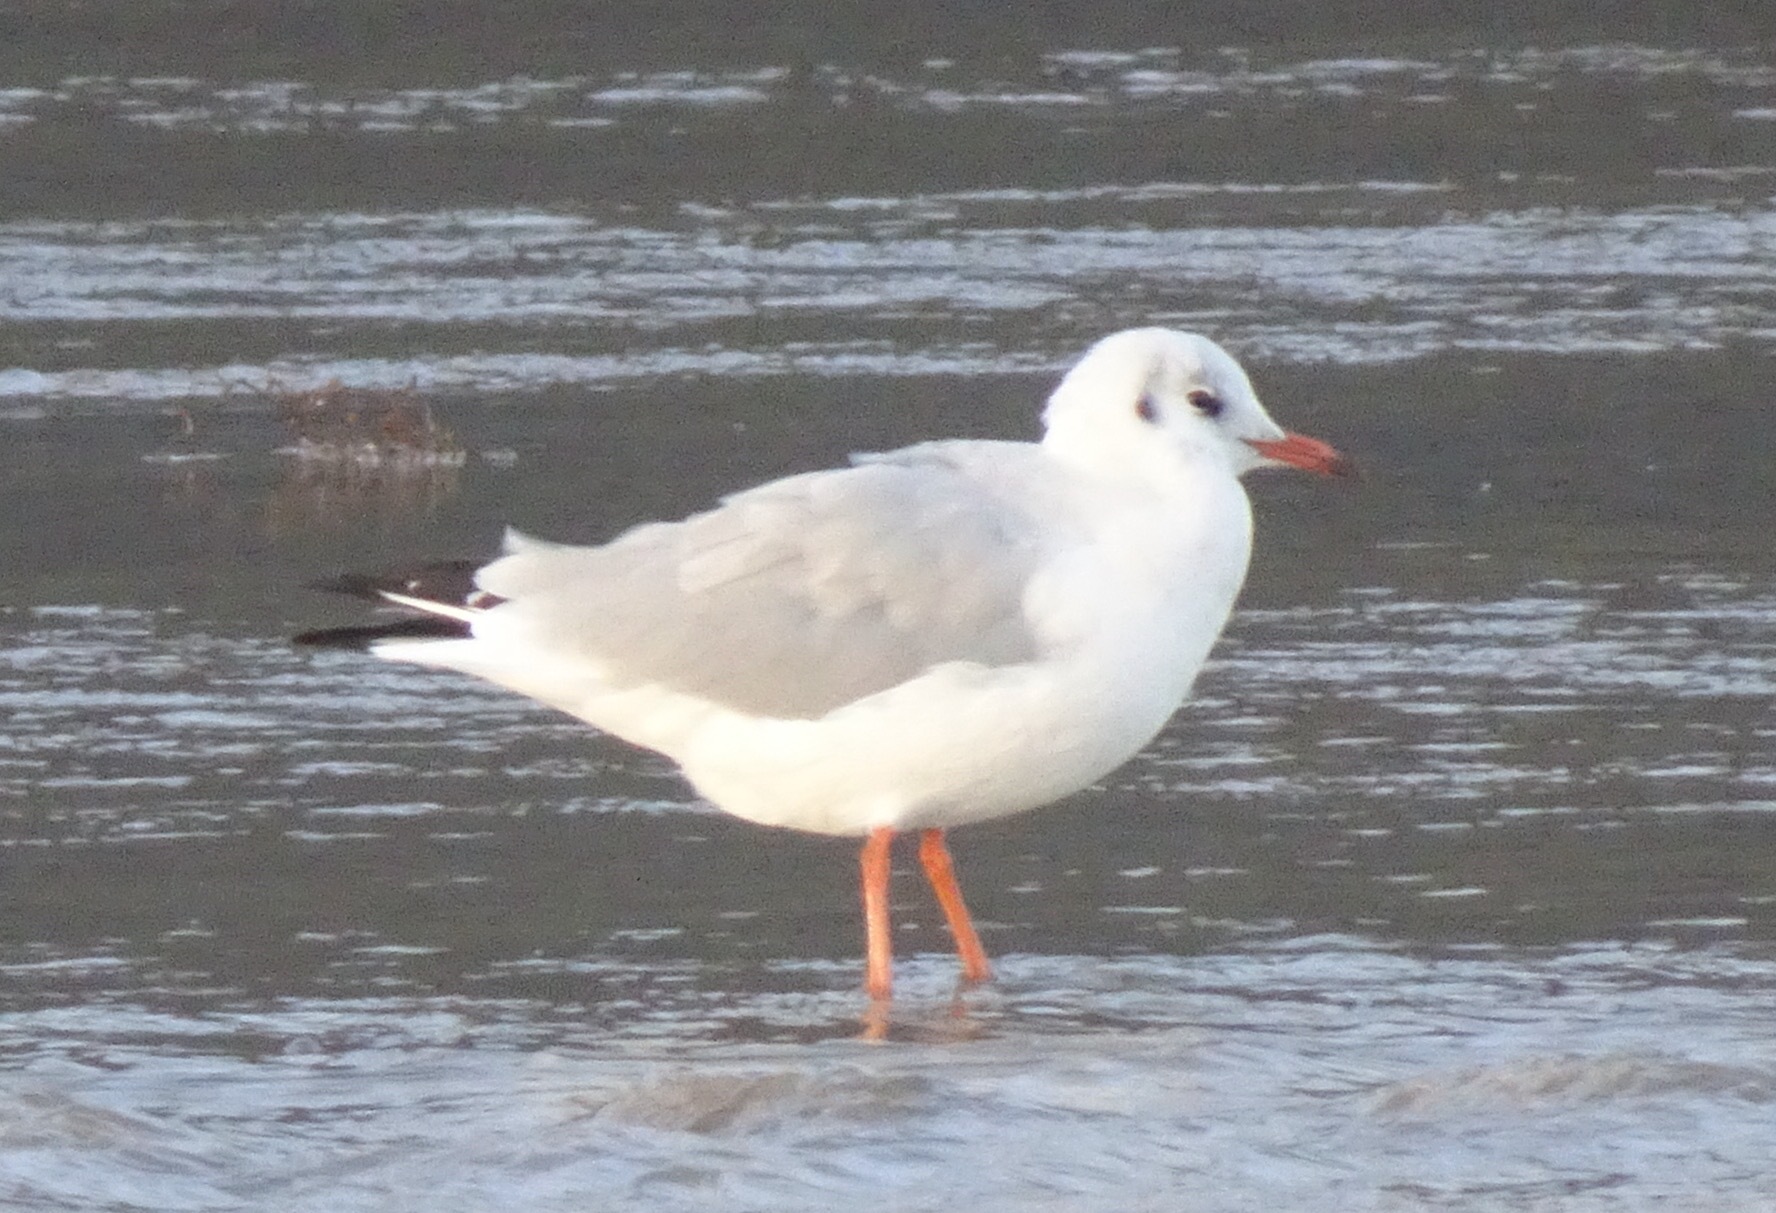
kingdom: Animalia
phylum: Chordata
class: Aves
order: Charadriiformes
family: Laridae
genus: Chroicocephalus
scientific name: Chroicocephalus ridibundus
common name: Black-headed gull
